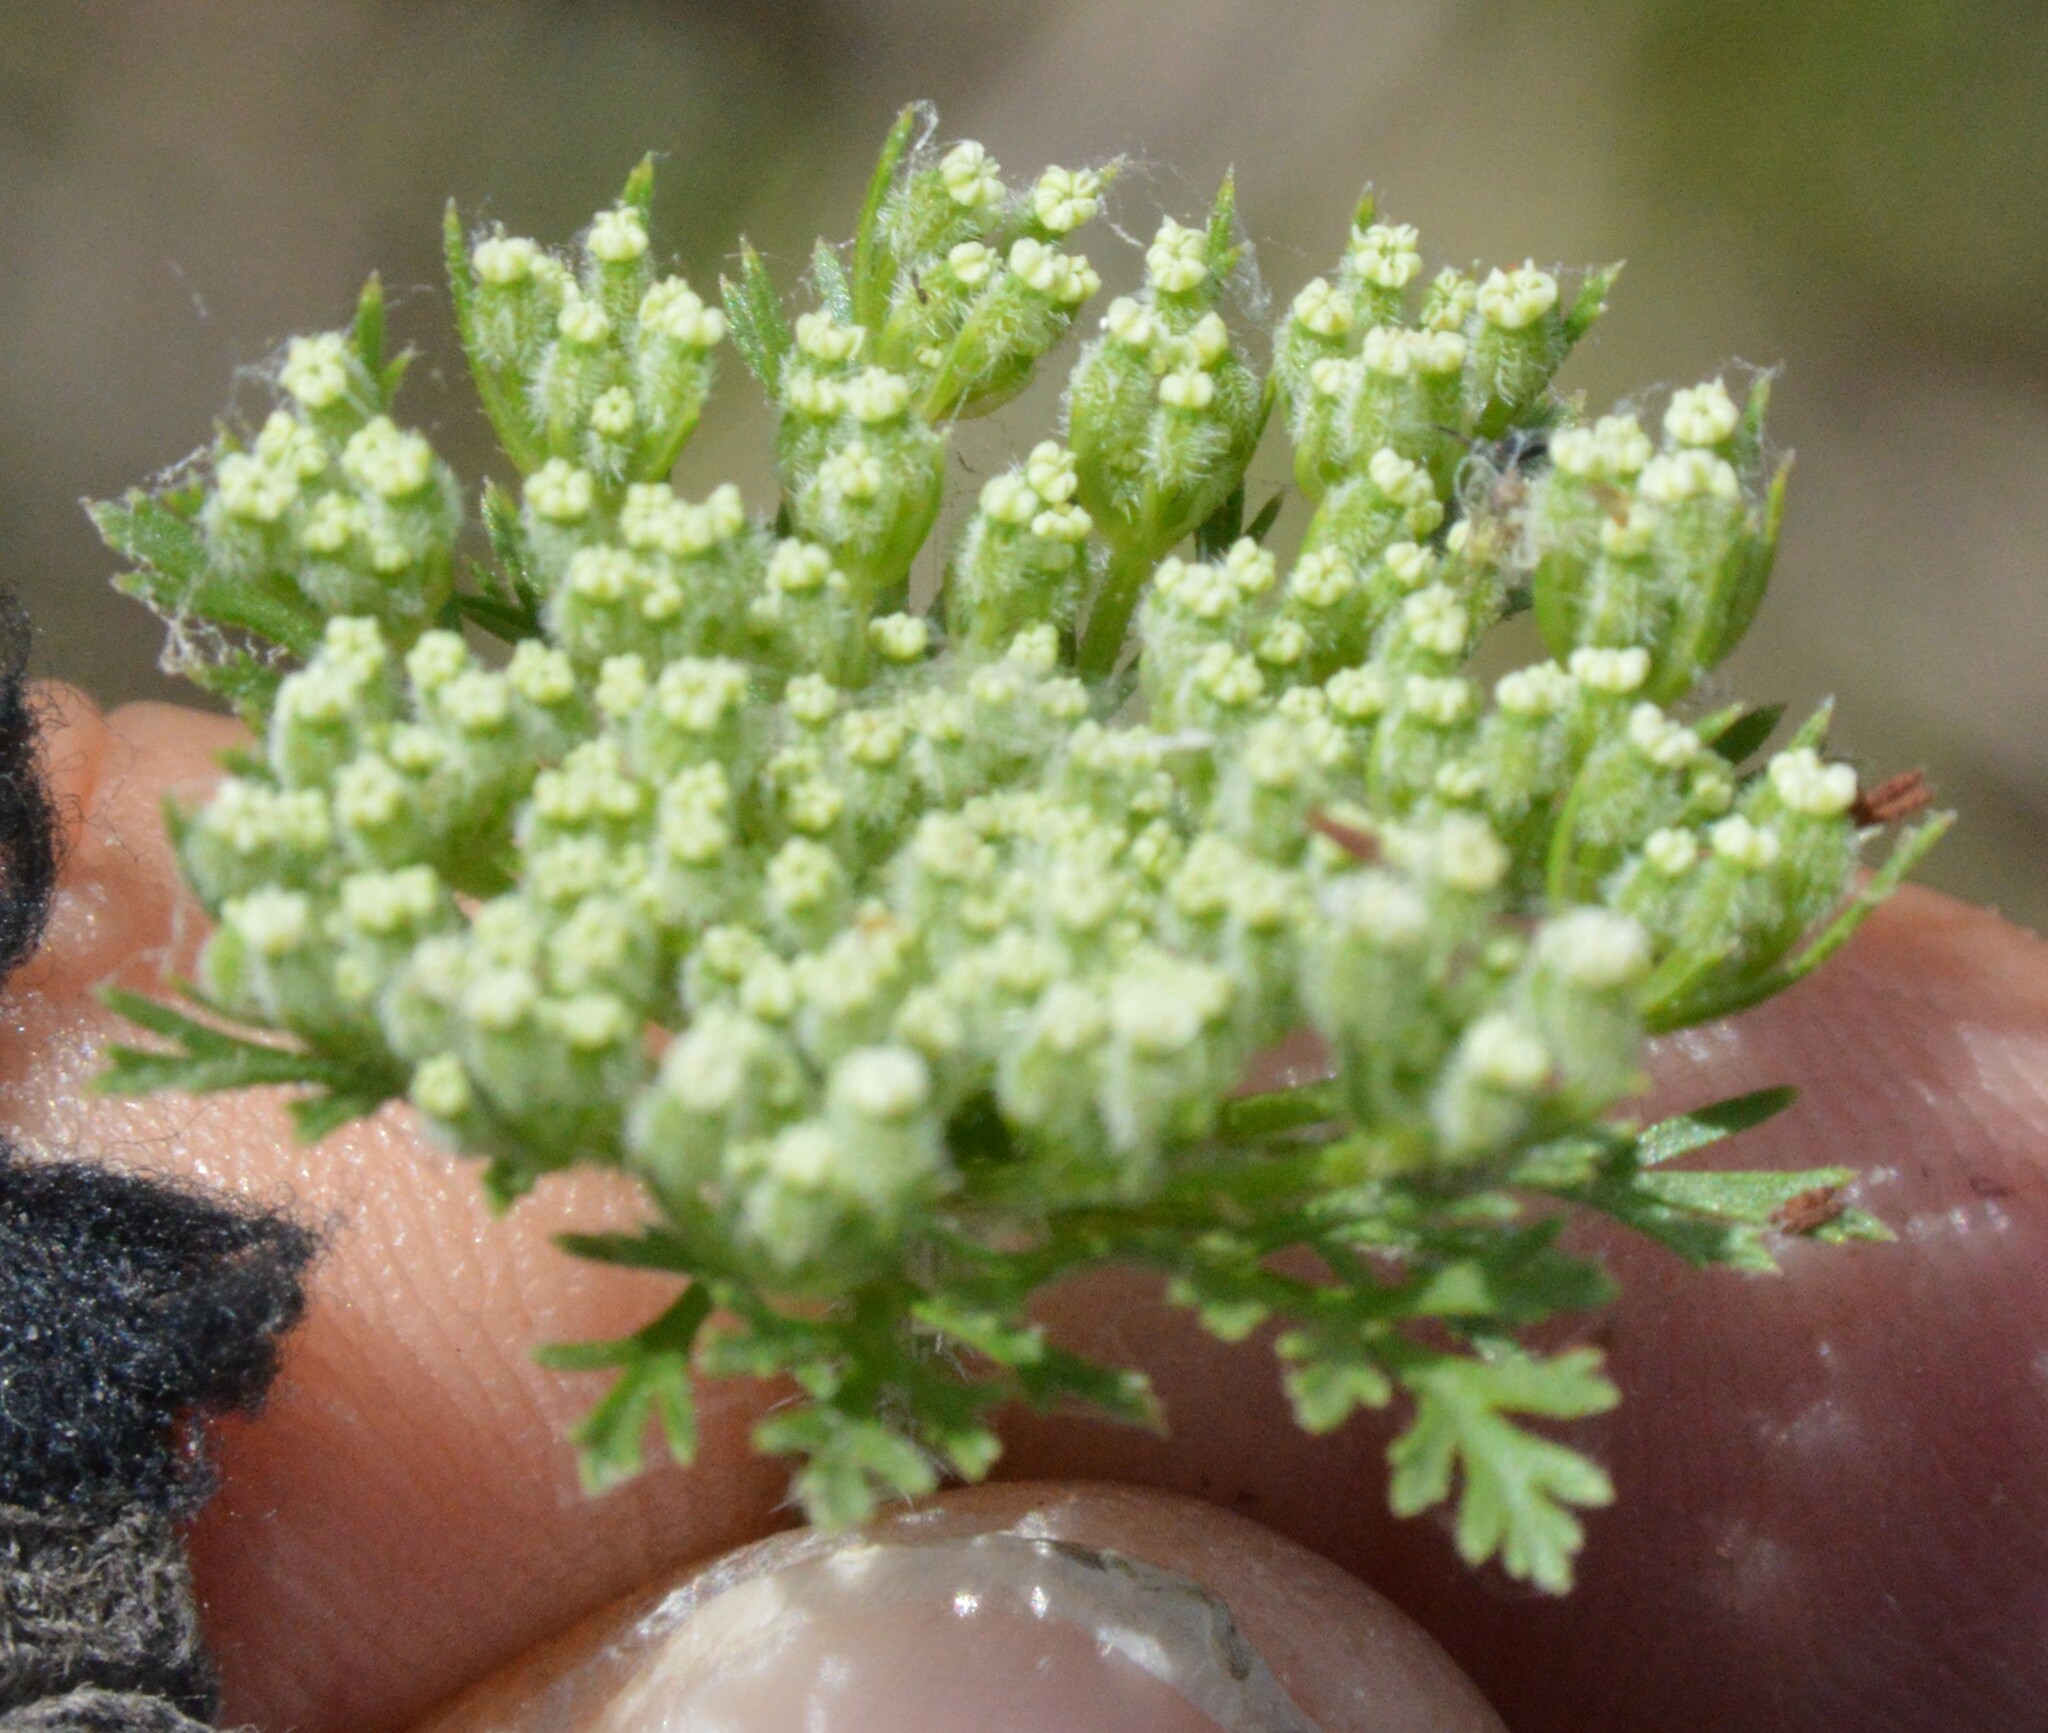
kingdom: Plantae
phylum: Tracheophyta
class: Magnoliopsida
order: Apiales
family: Apiaceae
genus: Daucus
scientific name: Daucus pusillus
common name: Southwest wild carrot
